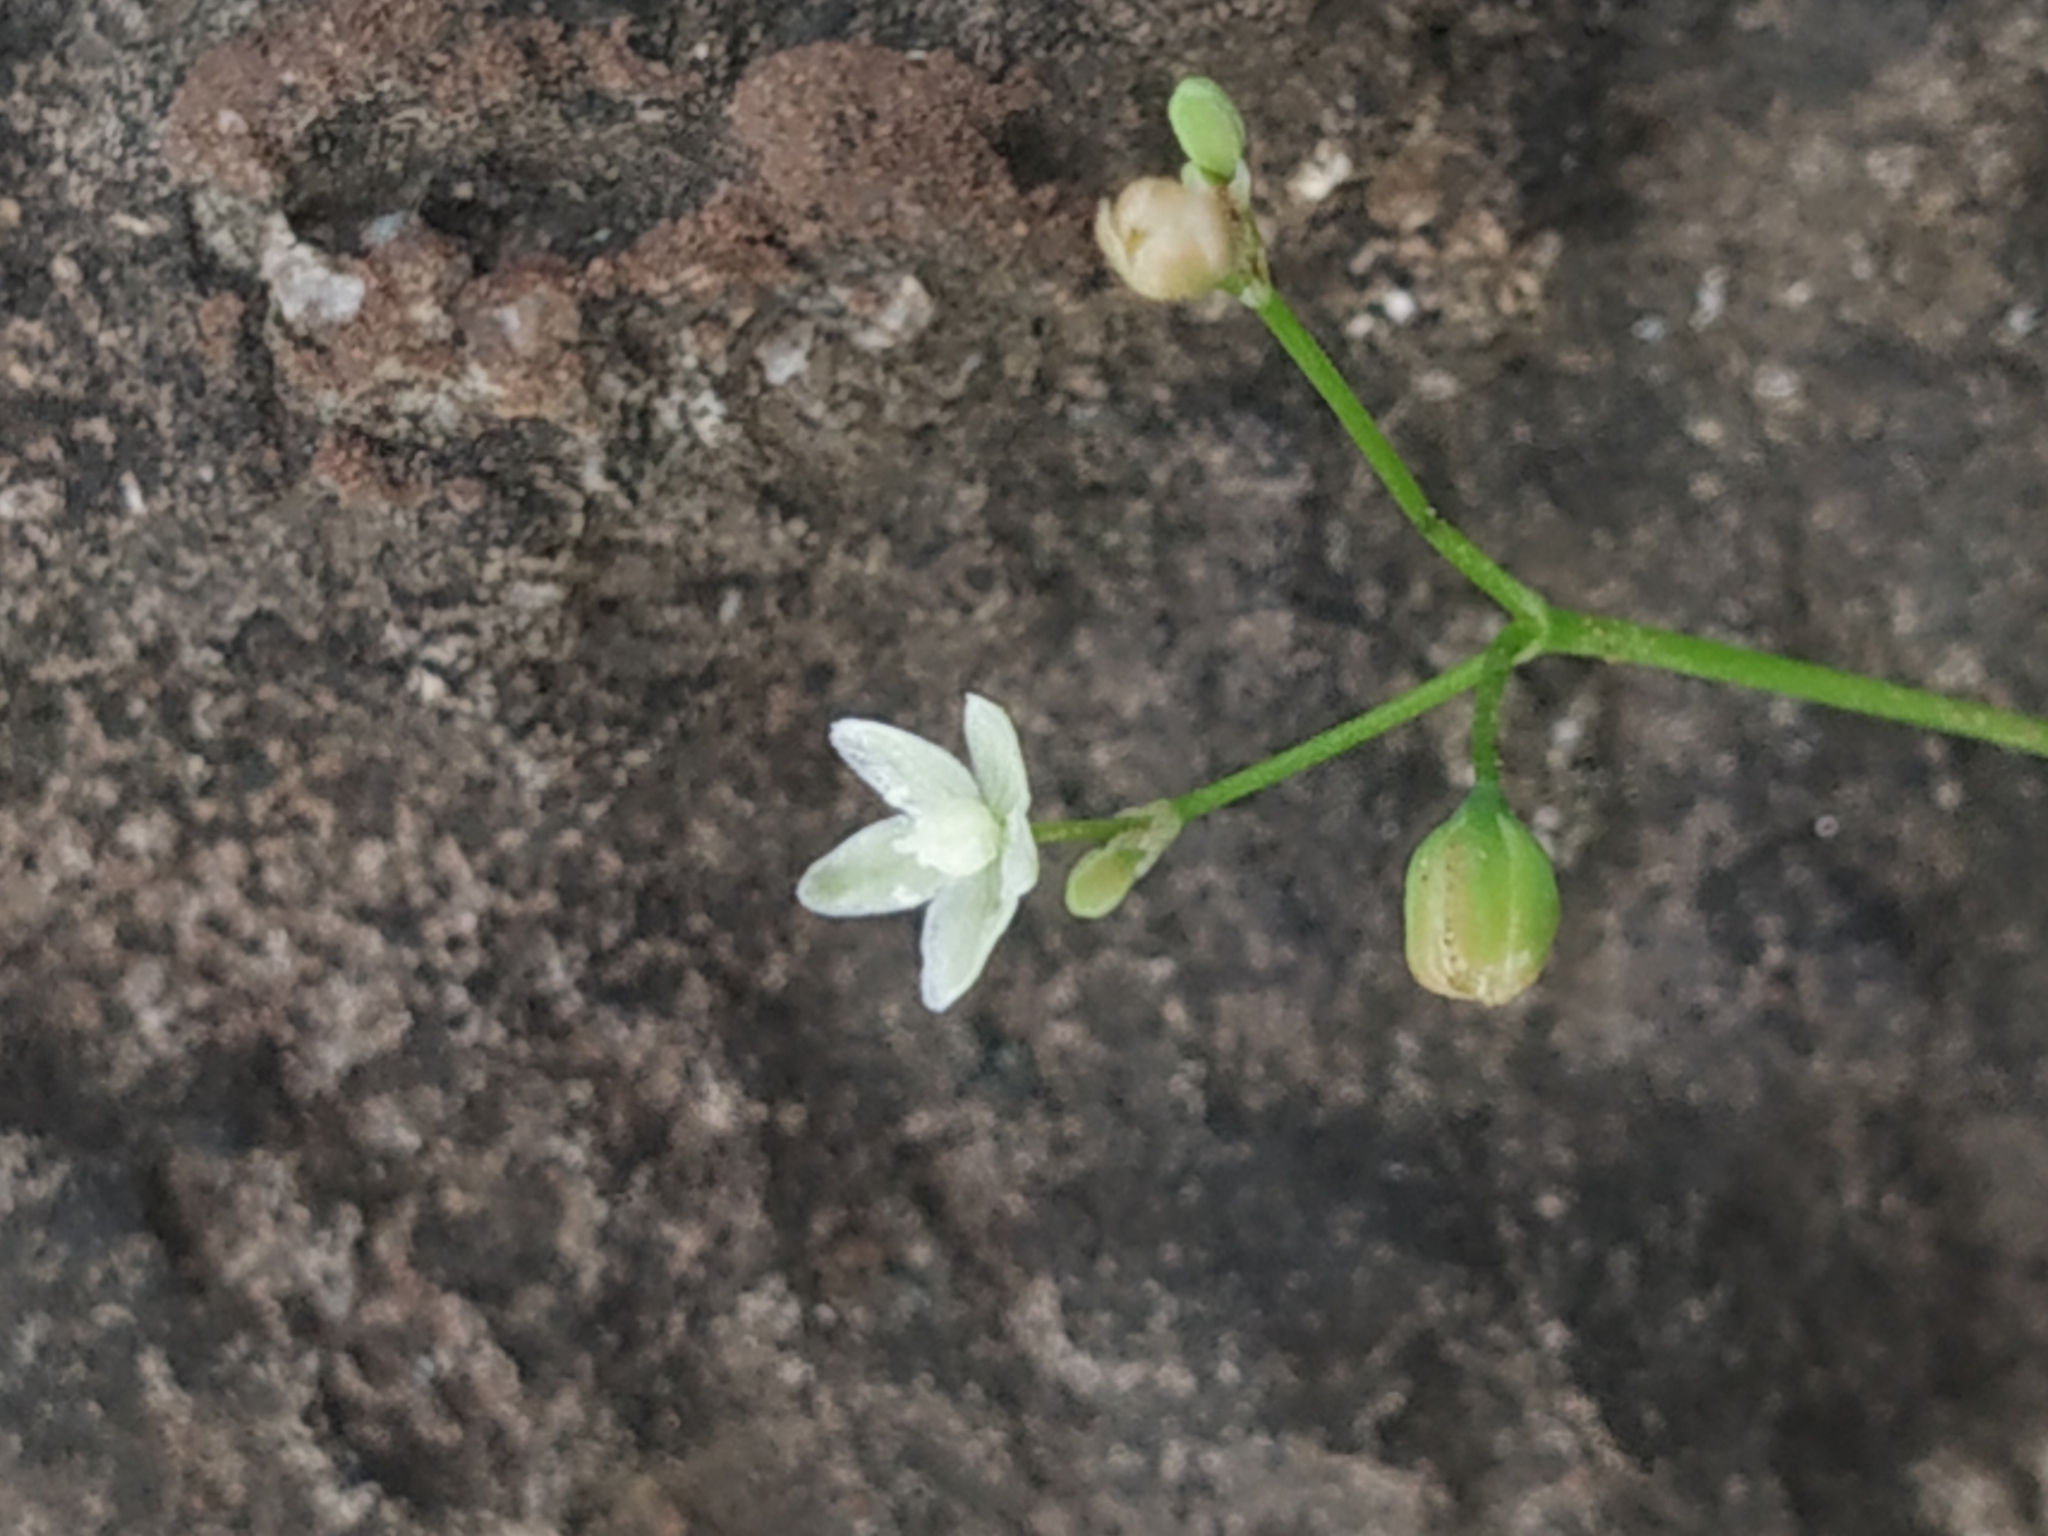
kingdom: Plantae
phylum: Tracheophyta
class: Magnoliopsida
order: Caryophyllales
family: Molluginaceae
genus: Trigastrotheca
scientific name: Trigastrotheca pentaphylla
